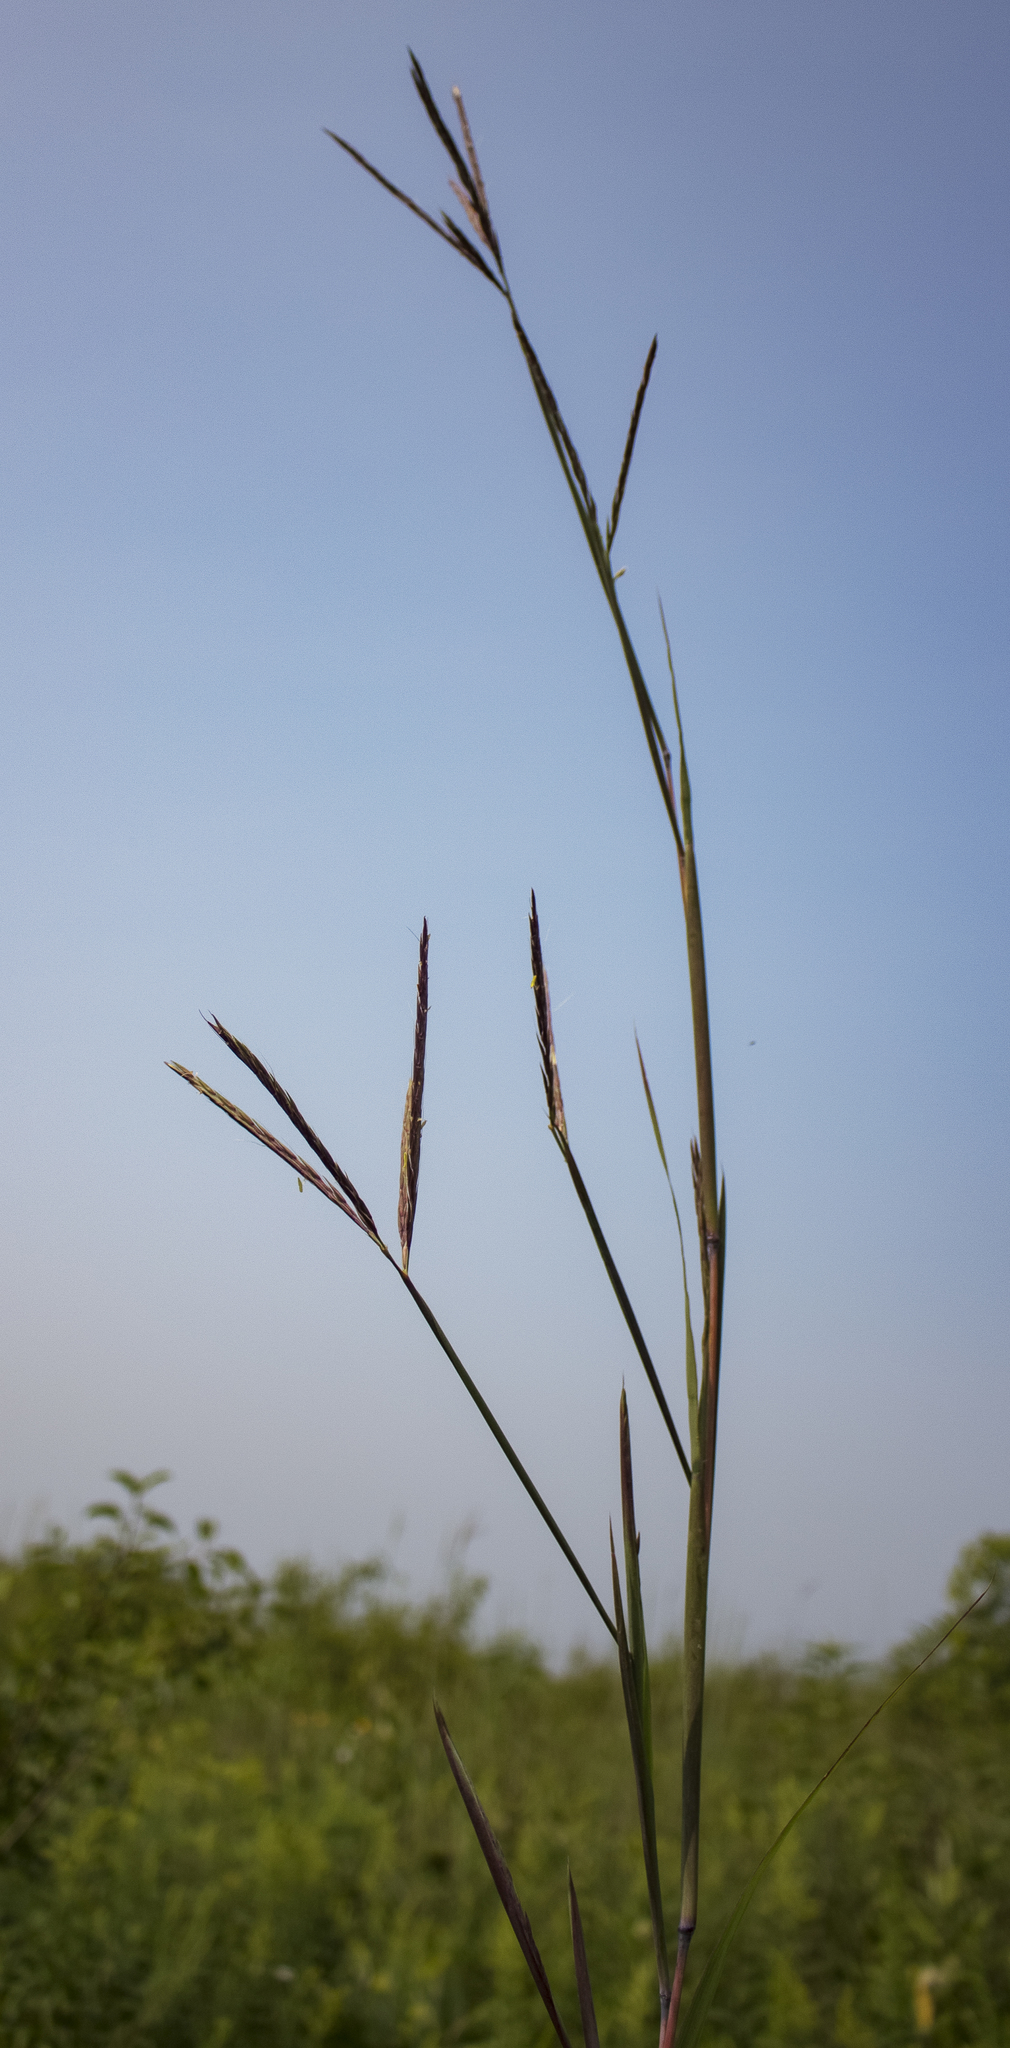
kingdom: Plantae
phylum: Tracheophyta
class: Liliopsida
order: Poales
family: Poaceae
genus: Andropogon
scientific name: Andropogon gerardi
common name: Big bluestem
